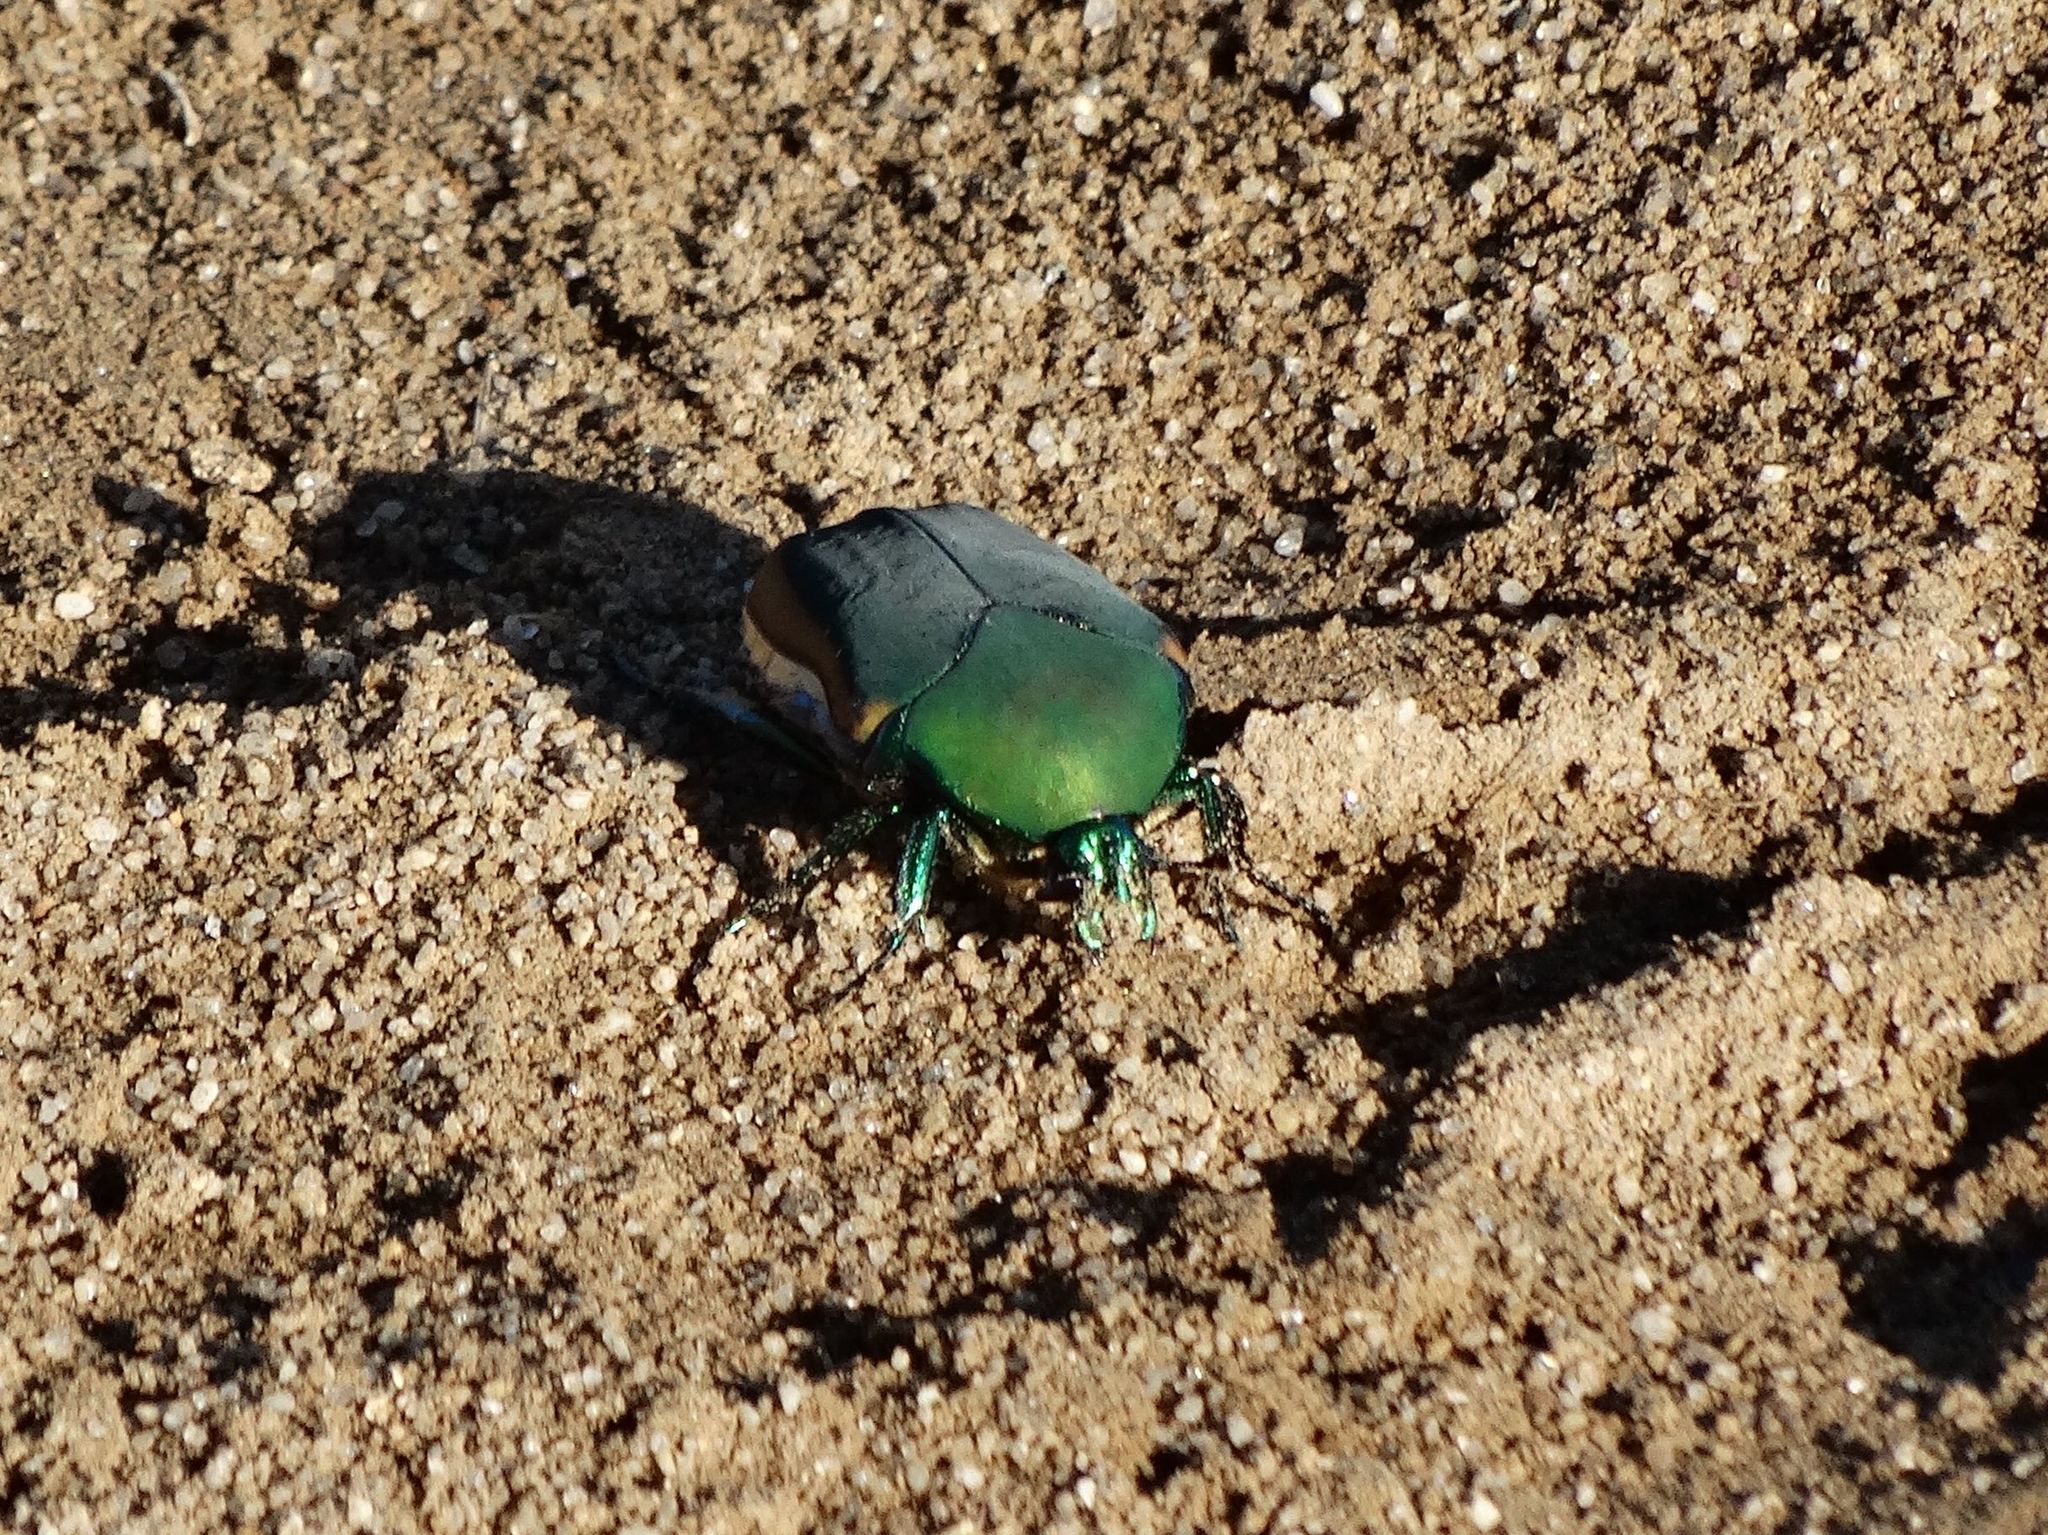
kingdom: Animalia
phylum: Arthropoda
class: Insecta
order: Coleoptera
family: Scarabaeidae
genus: Cotinis
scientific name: Cotinis mutabilis
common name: Figeater beetle
